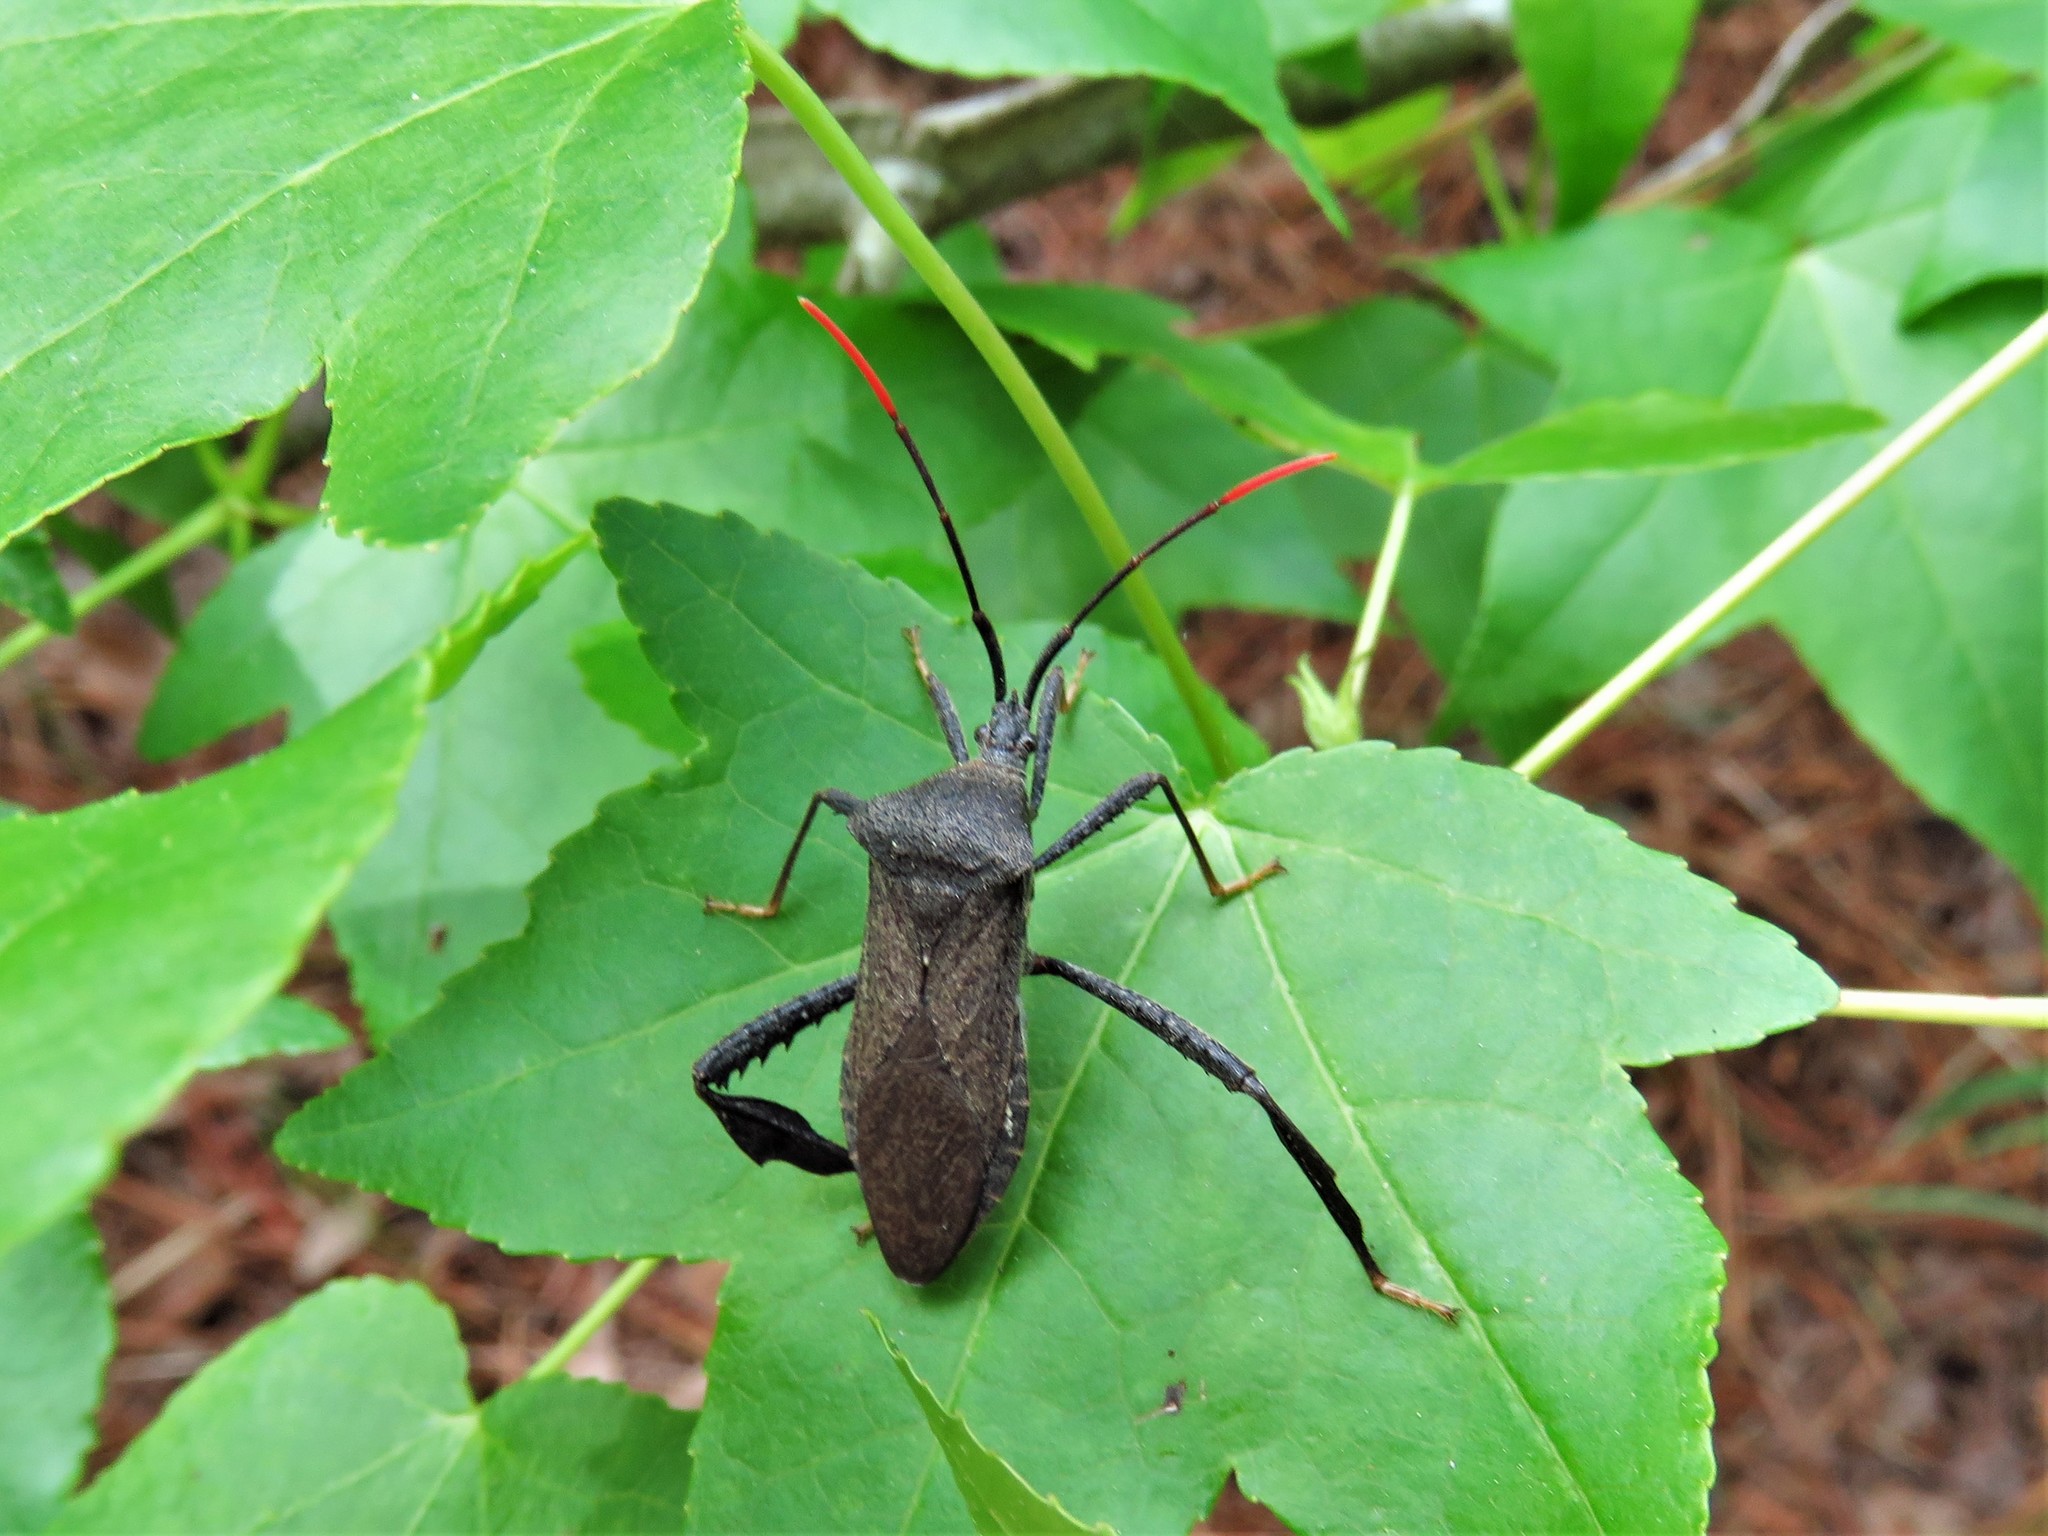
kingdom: Animalia
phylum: Arthropoda
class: Insecta
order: Hemiptera
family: Coreidae
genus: Acanthocephala
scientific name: Acanthocephala terminalis
